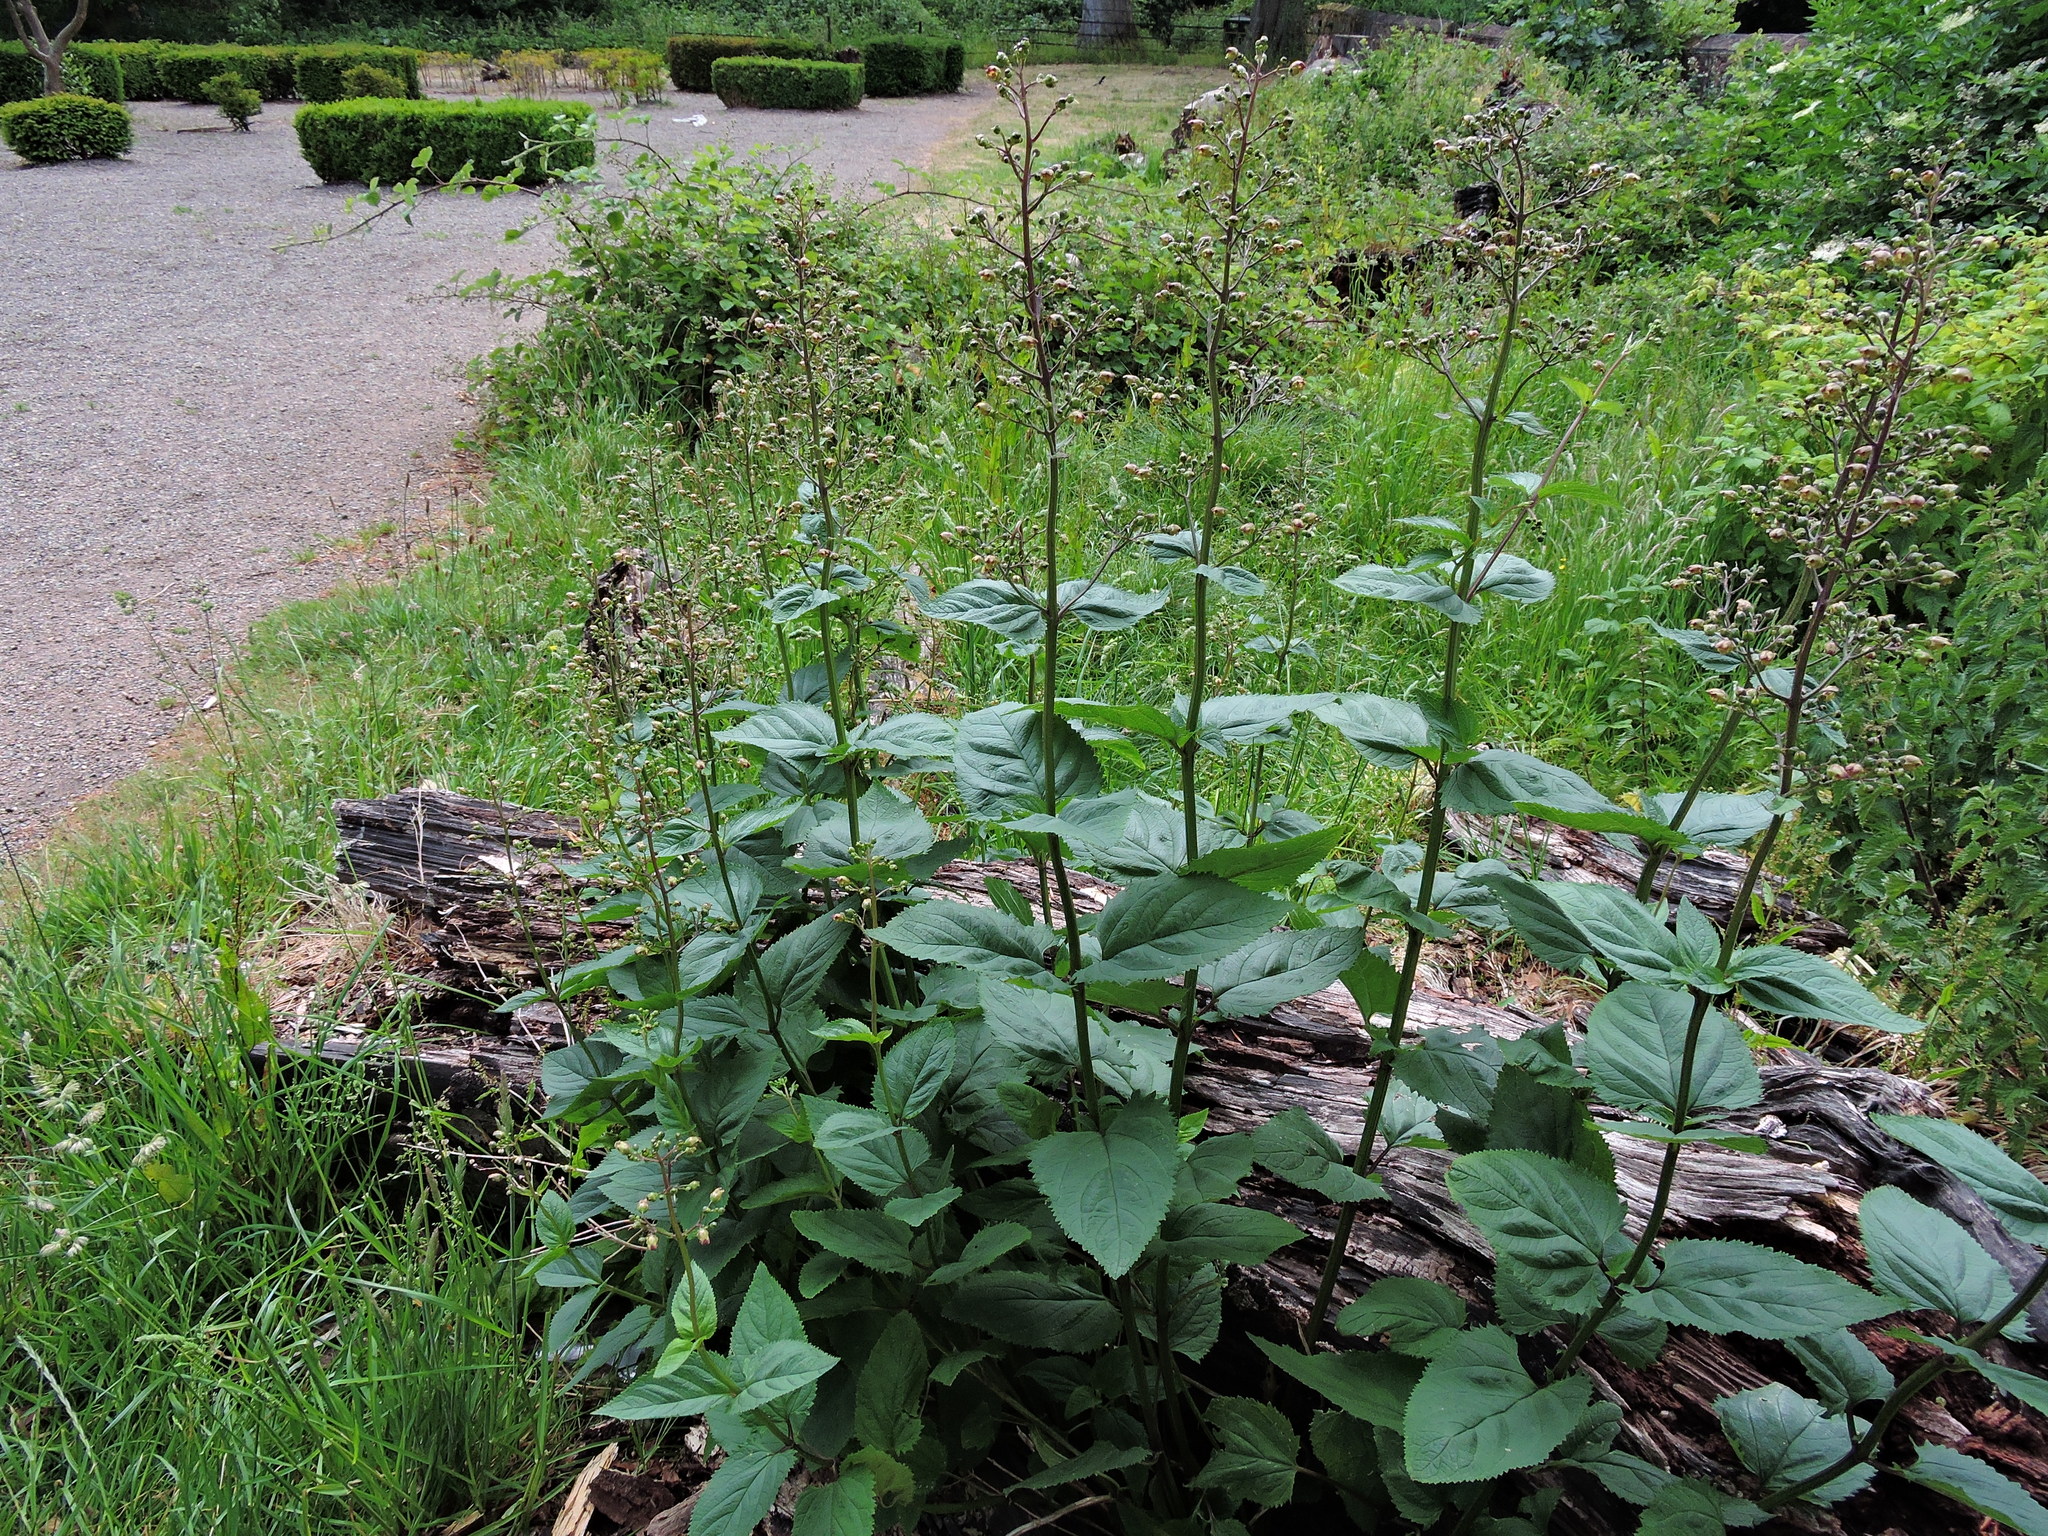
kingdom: Plantae
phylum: Tracheophyta
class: Magnoliopsida
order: Lamiales
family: Scrophulariaceae
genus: Scrophularia
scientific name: Scrophularia nodosa
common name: Common figwort
